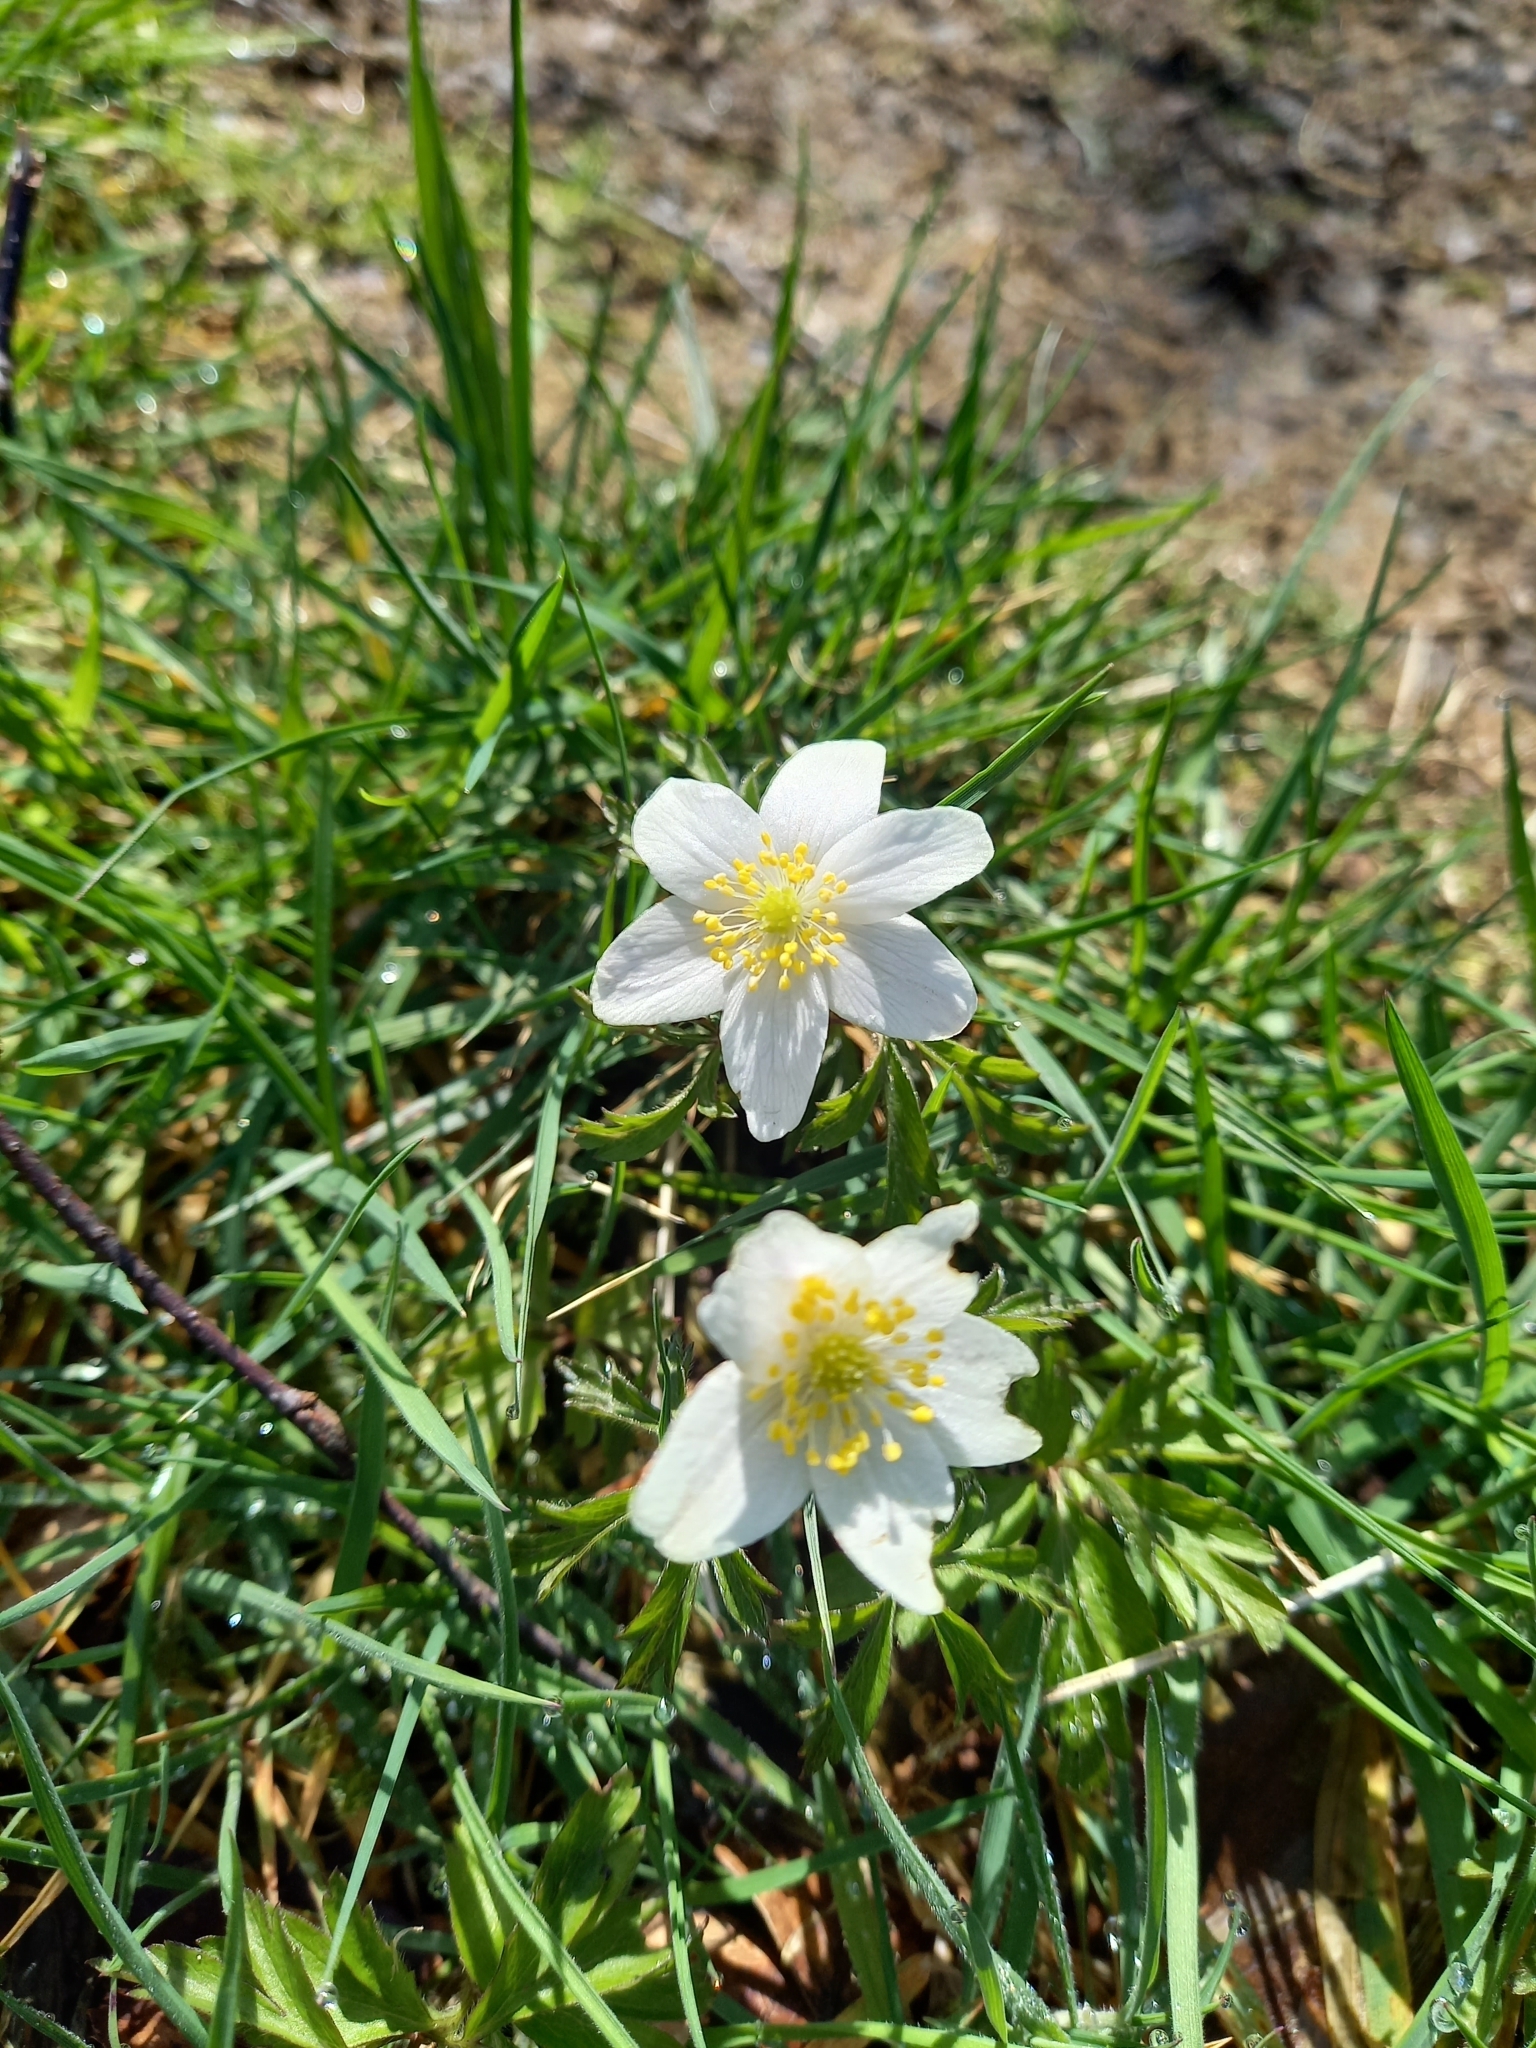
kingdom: Plantae
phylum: Tracheophyta
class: Magnoliopsida
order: Ranunculales
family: Ranunculaceae
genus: Anemone
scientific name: Anemone nemorosa
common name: Wood anemone
